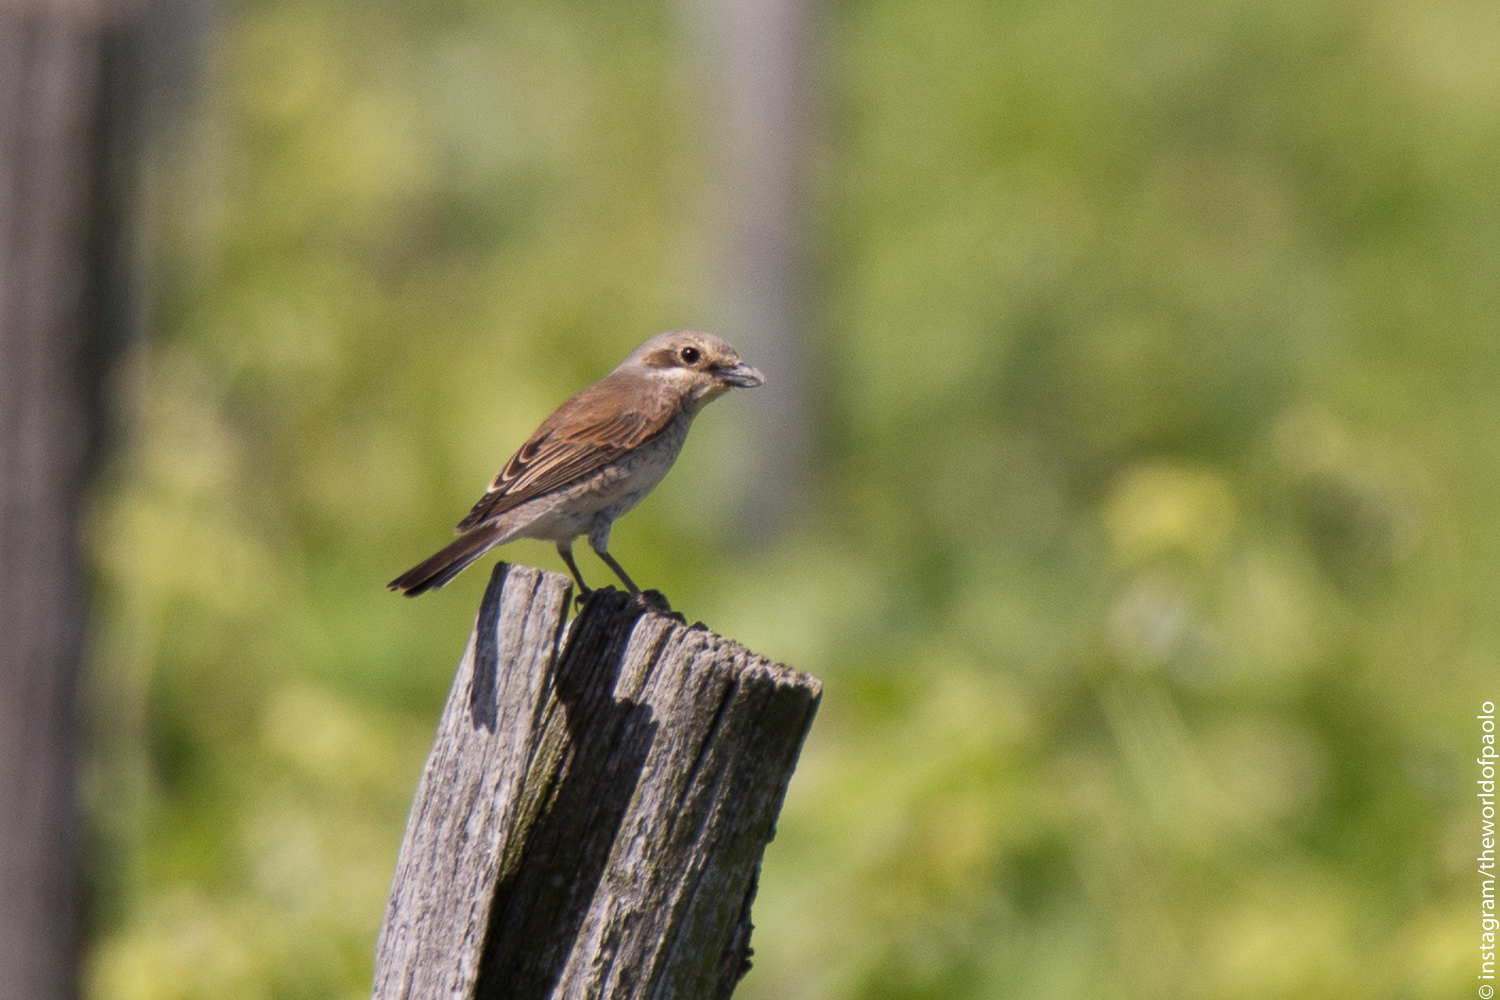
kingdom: Animalia
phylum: Chordata
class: Aves
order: Passeriformes
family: Laniidae
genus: Lanius
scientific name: Lanius collurio
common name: Red-backed shrike
